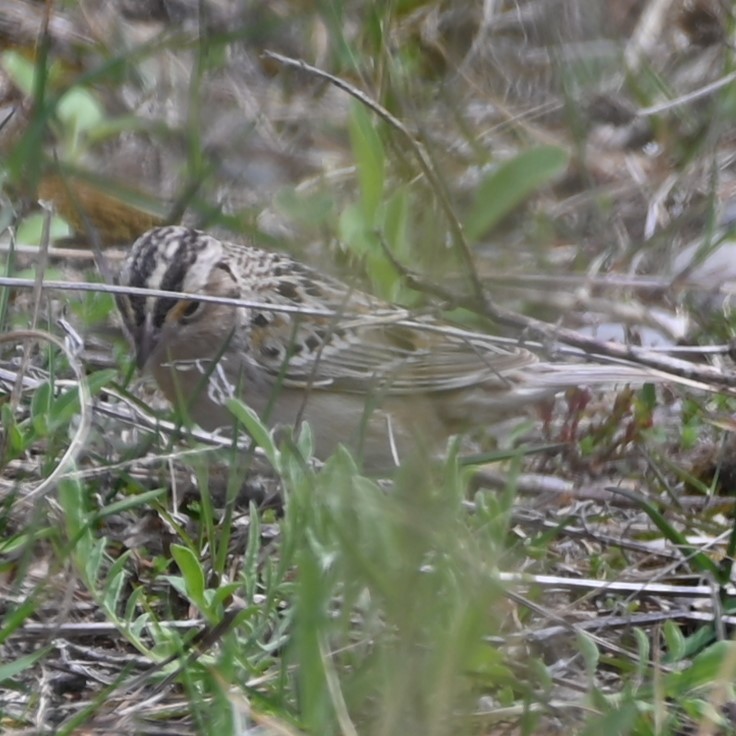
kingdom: Animalia
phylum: Chordata
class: Aves
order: Passeriformes
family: Passerellidae
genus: Ammodramus
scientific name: Ammodramus savannarum
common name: Grasshopper sparrow
